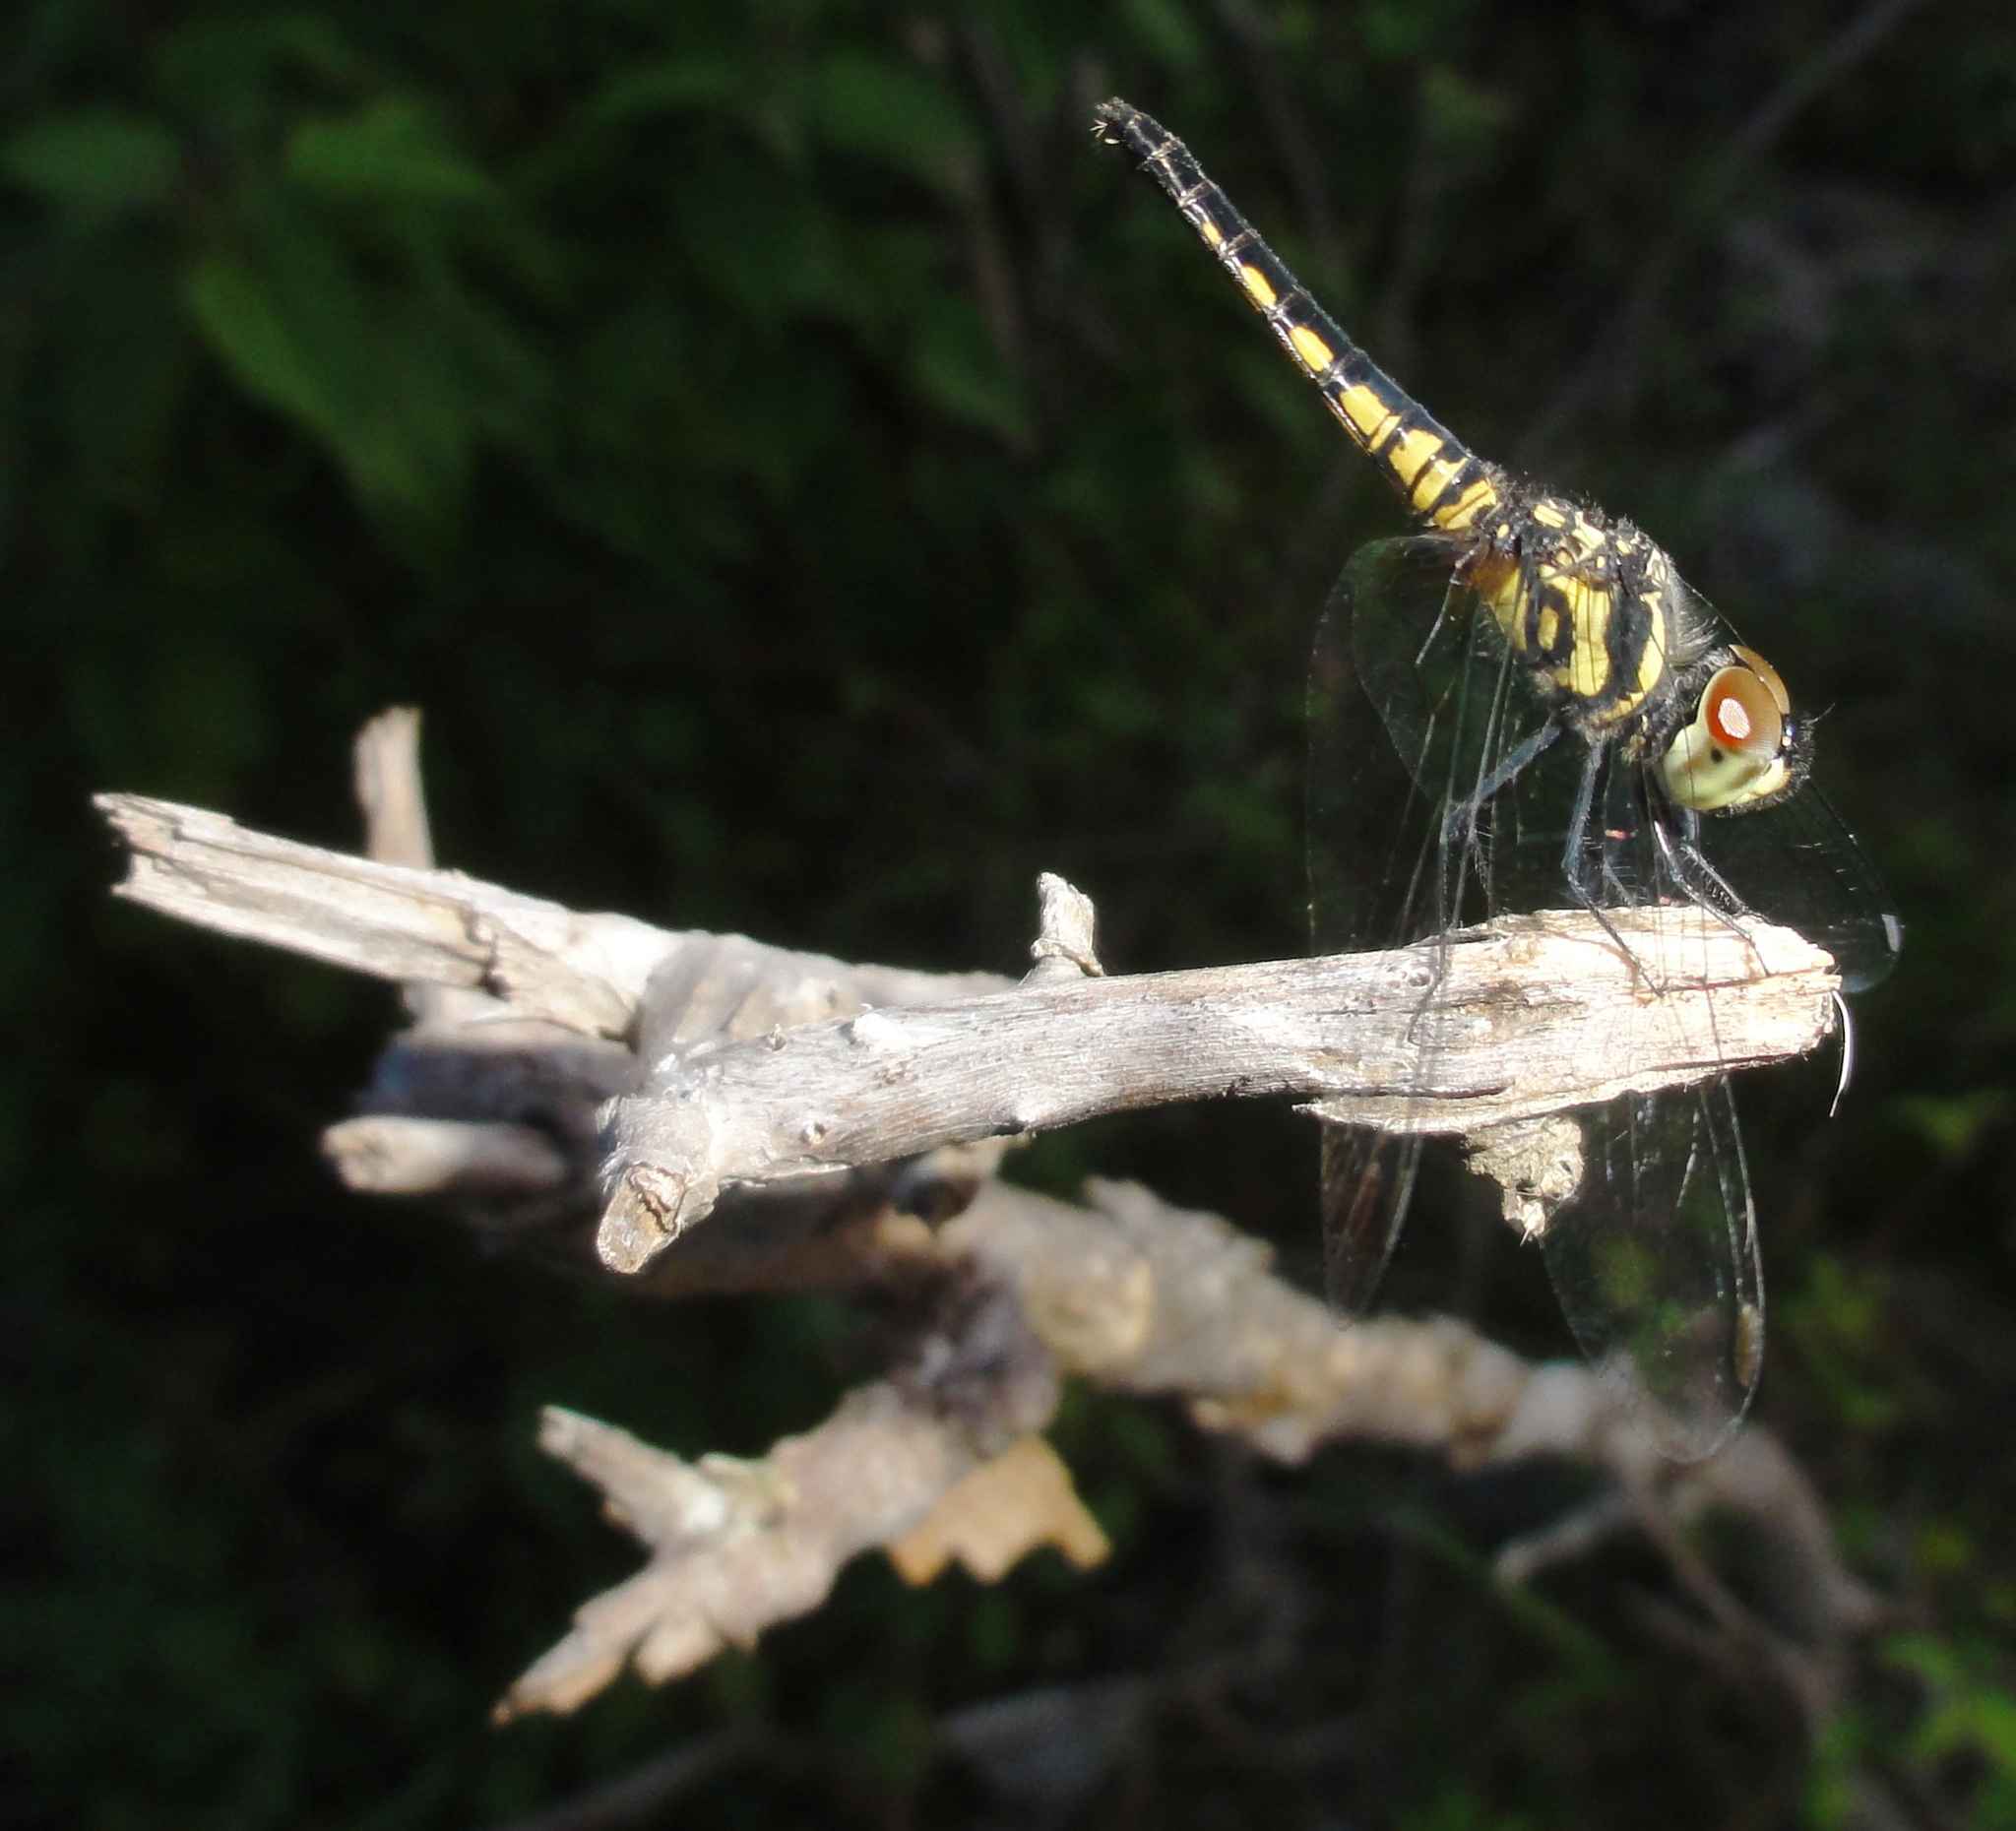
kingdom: Animalia
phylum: Arthropoda
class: Insecta
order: Odonata
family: Libellulidae
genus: Aethriamanta
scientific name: Aethriamanta aethra
